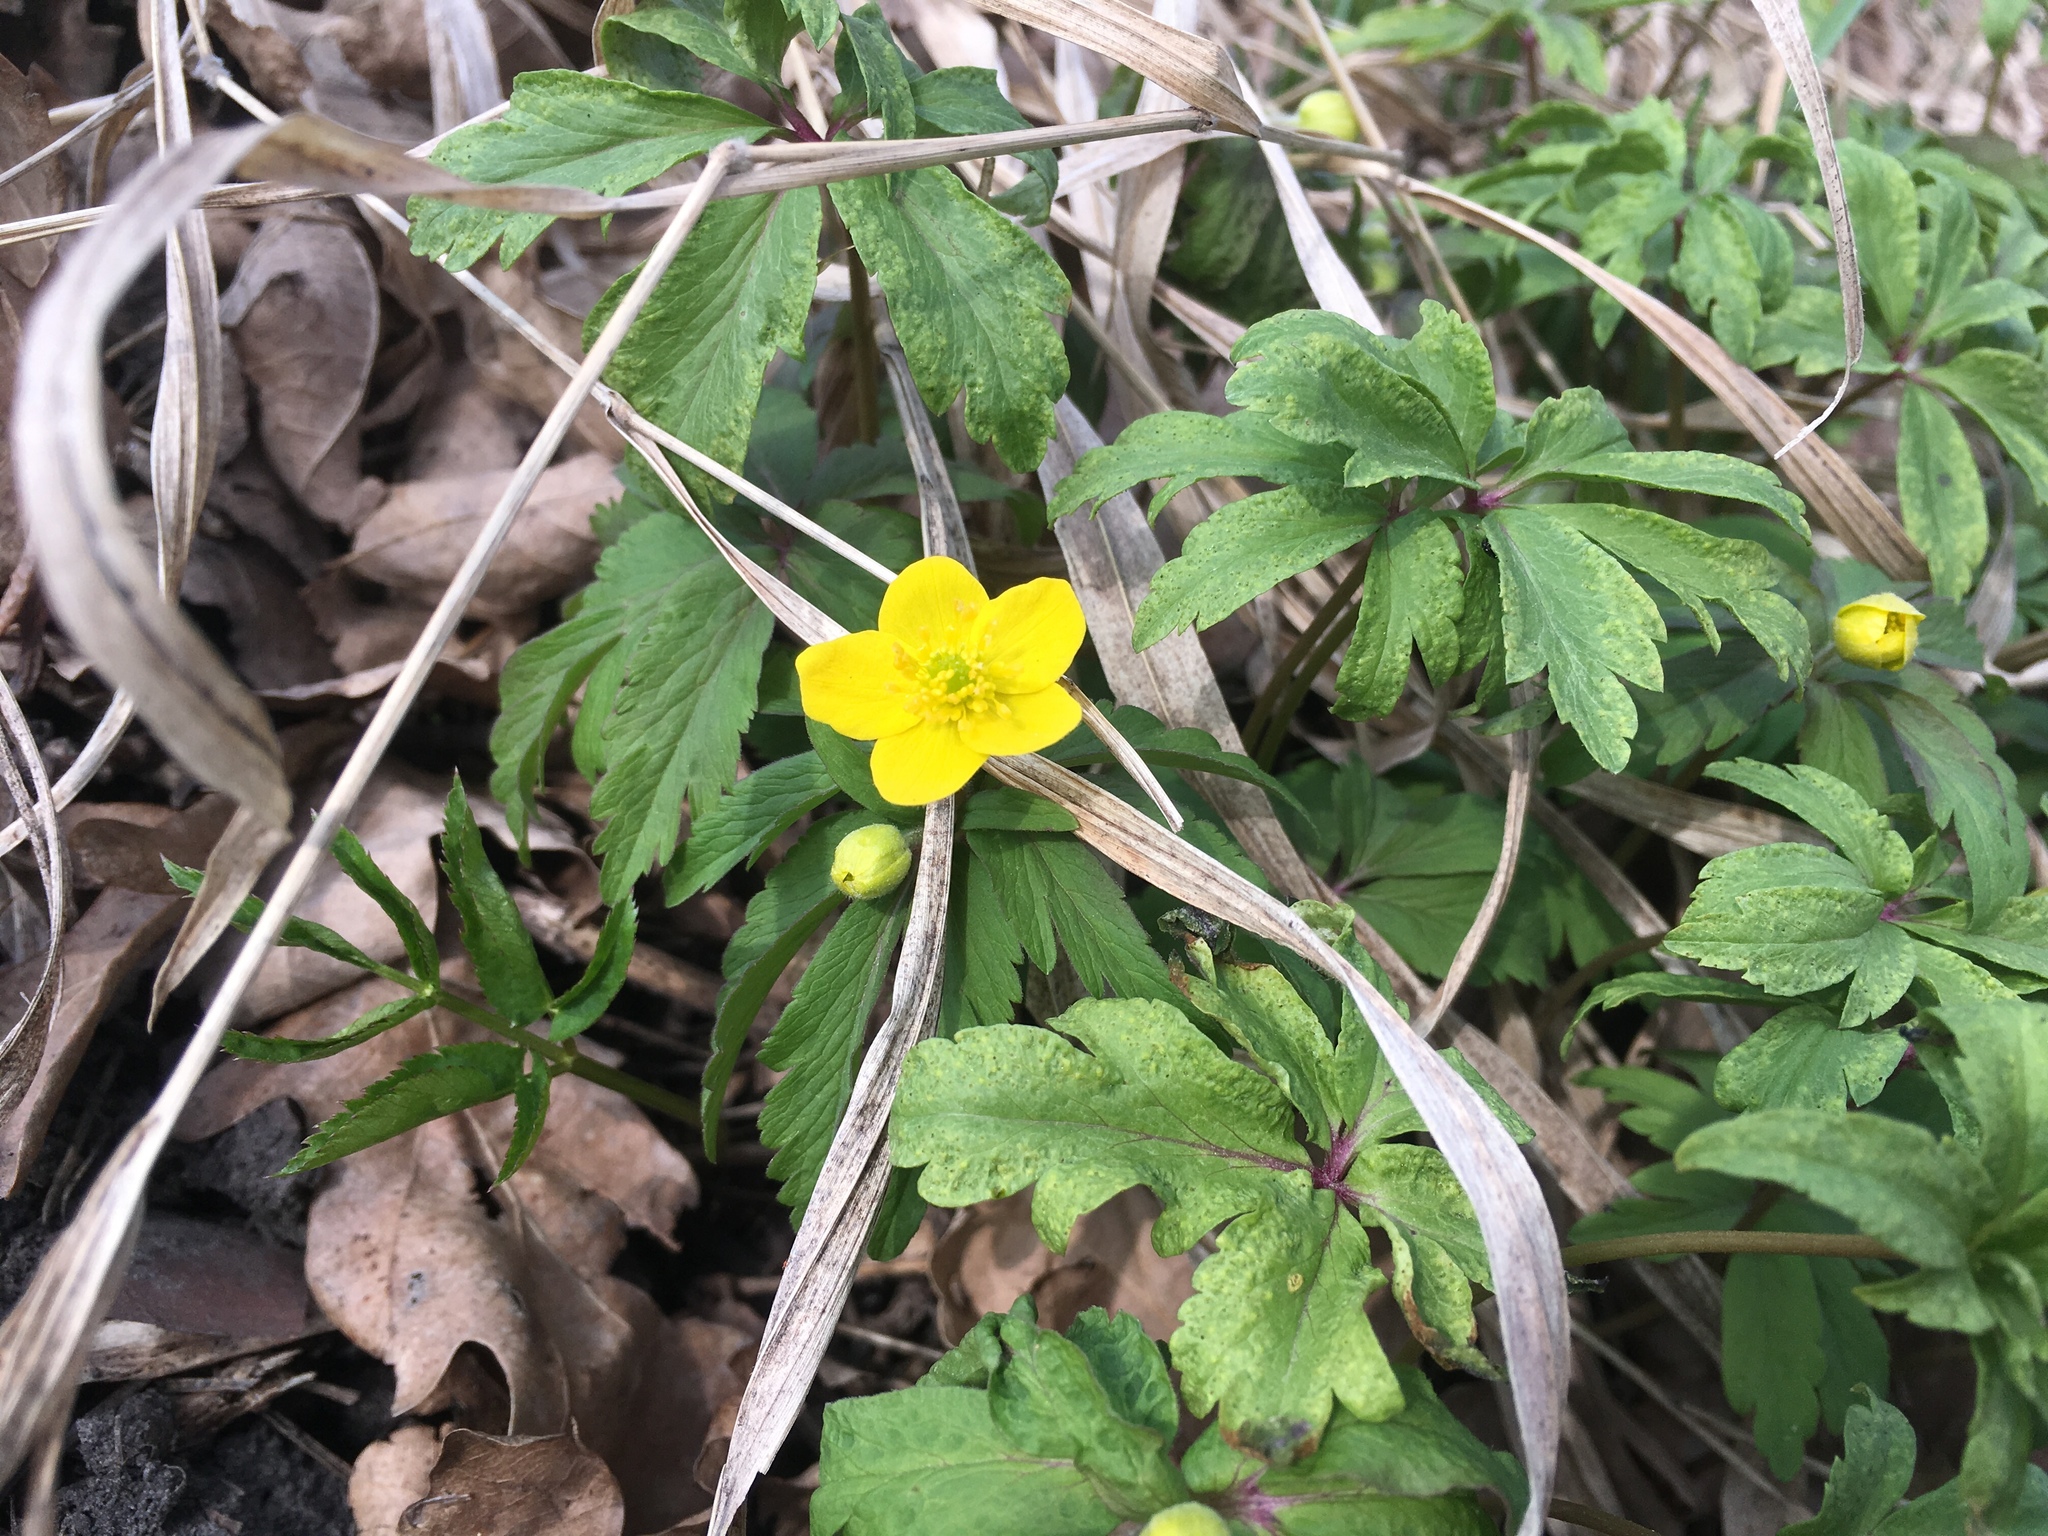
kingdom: Plantae
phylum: Tracheophyta
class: Magnoliopsida
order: Ranunculales
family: Ranunculaceae
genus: Anemone
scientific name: Anemone ranunculoides
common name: Yellow anemone
